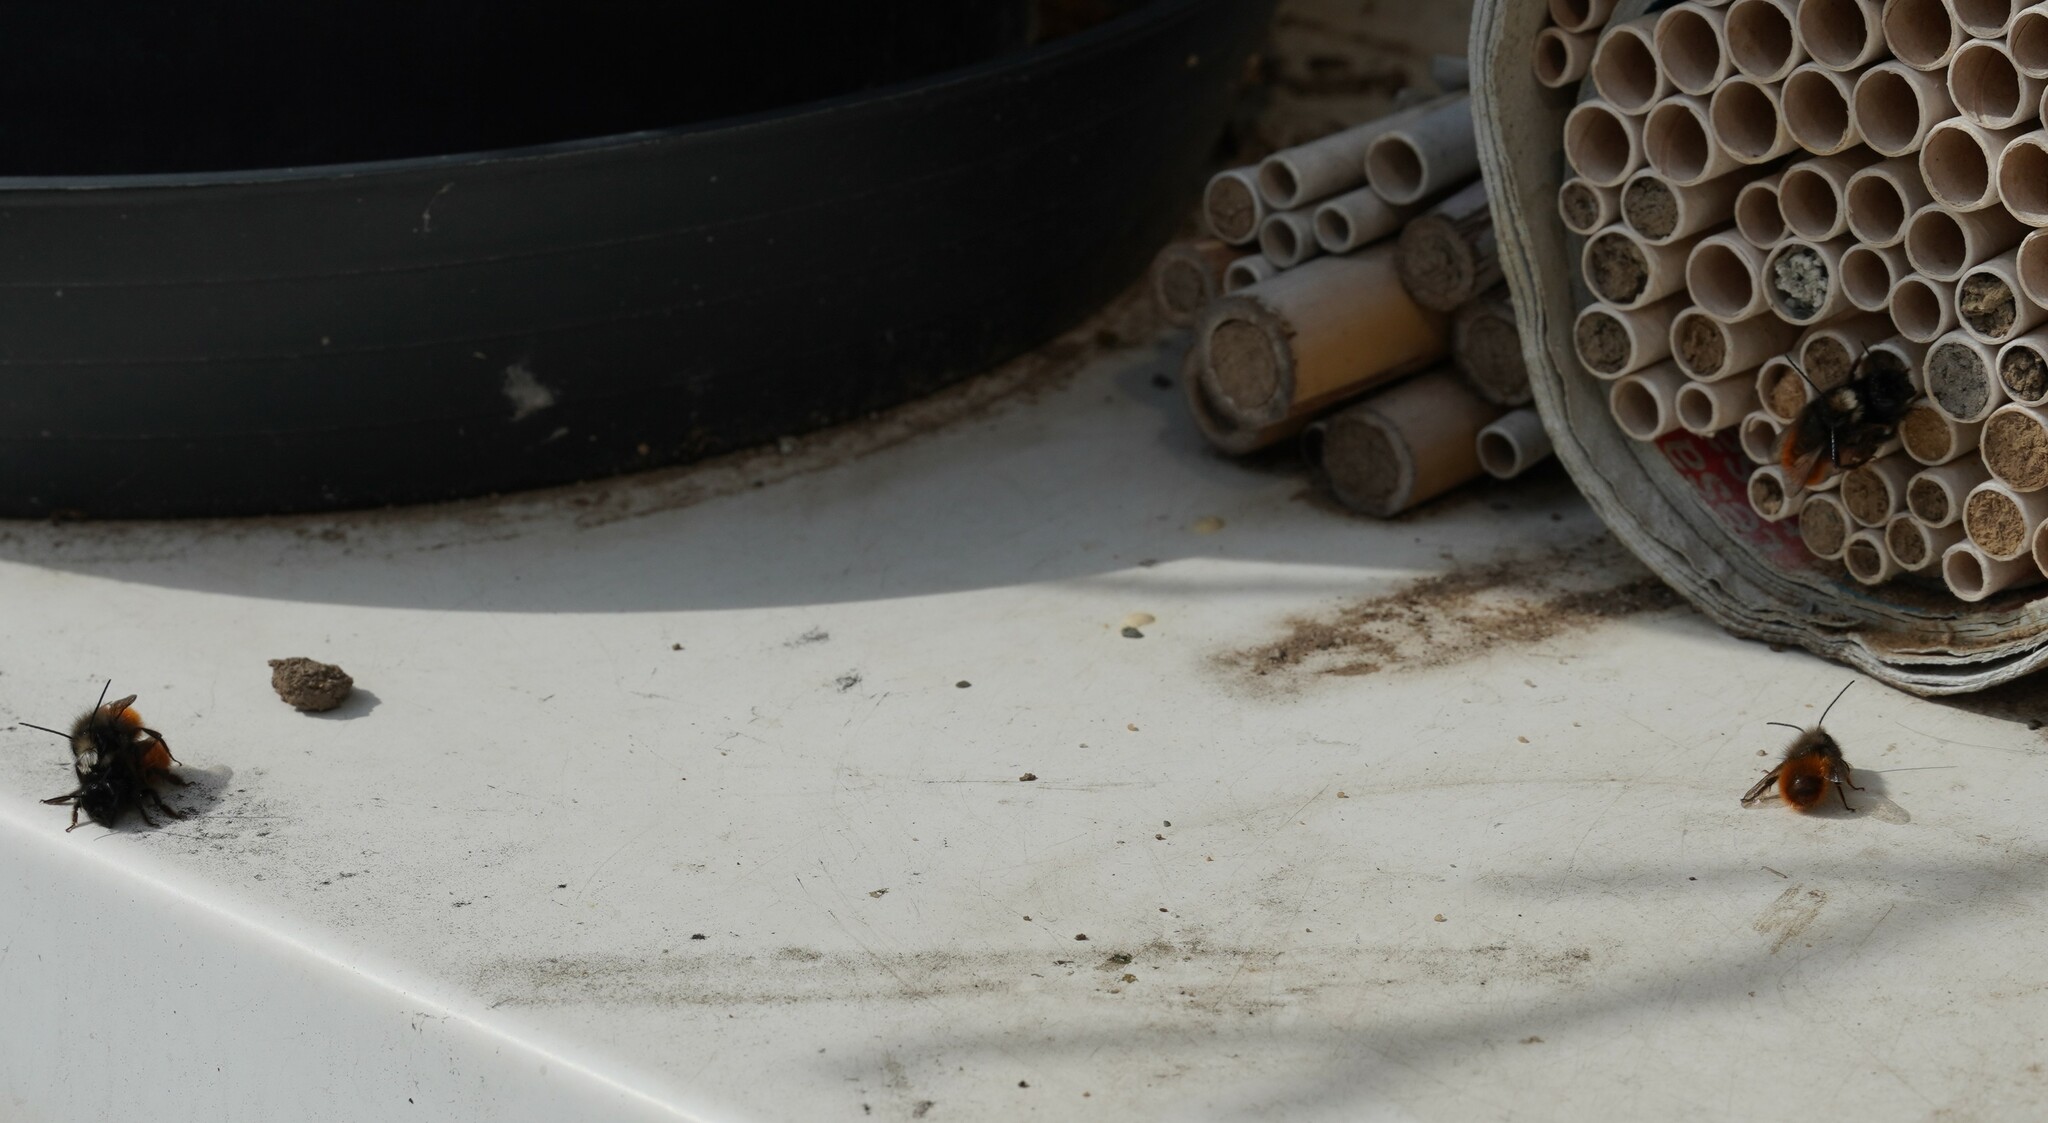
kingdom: Animalia
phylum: Arthropoda
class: Insecta
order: Hymenoptera
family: Megachilidae
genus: Osmia
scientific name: Osmia cornuta
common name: Mason bee
